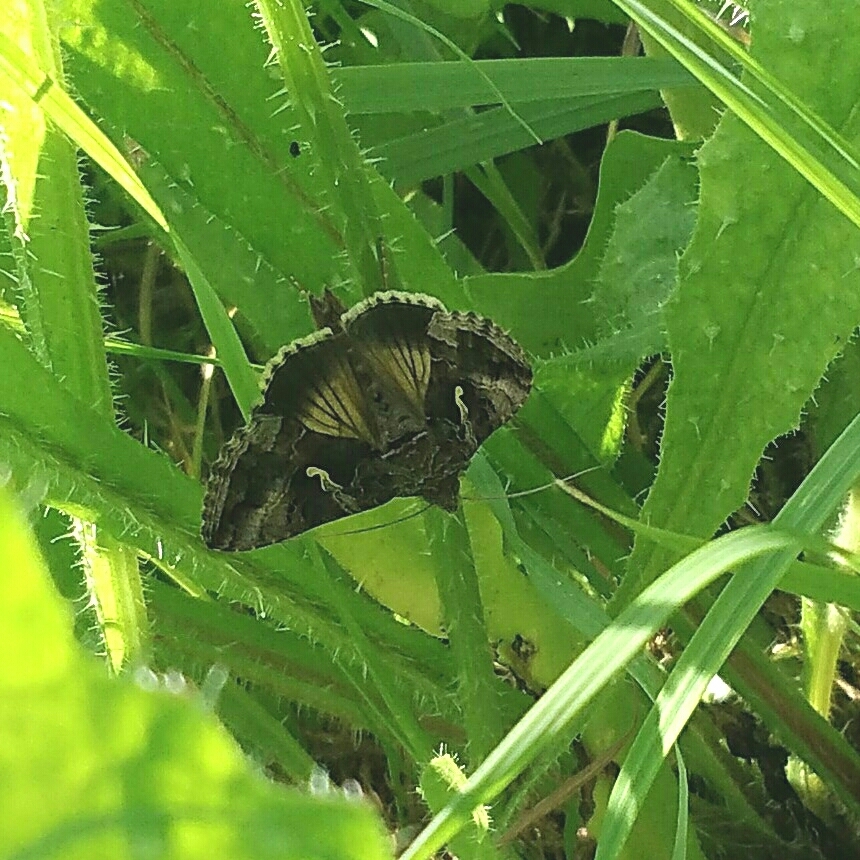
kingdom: Animalia
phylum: Arthropoda
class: Insecta
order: Lepidoptera
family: Noctuidae
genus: Autographa
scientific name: Autographa gamma
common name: Silver y
